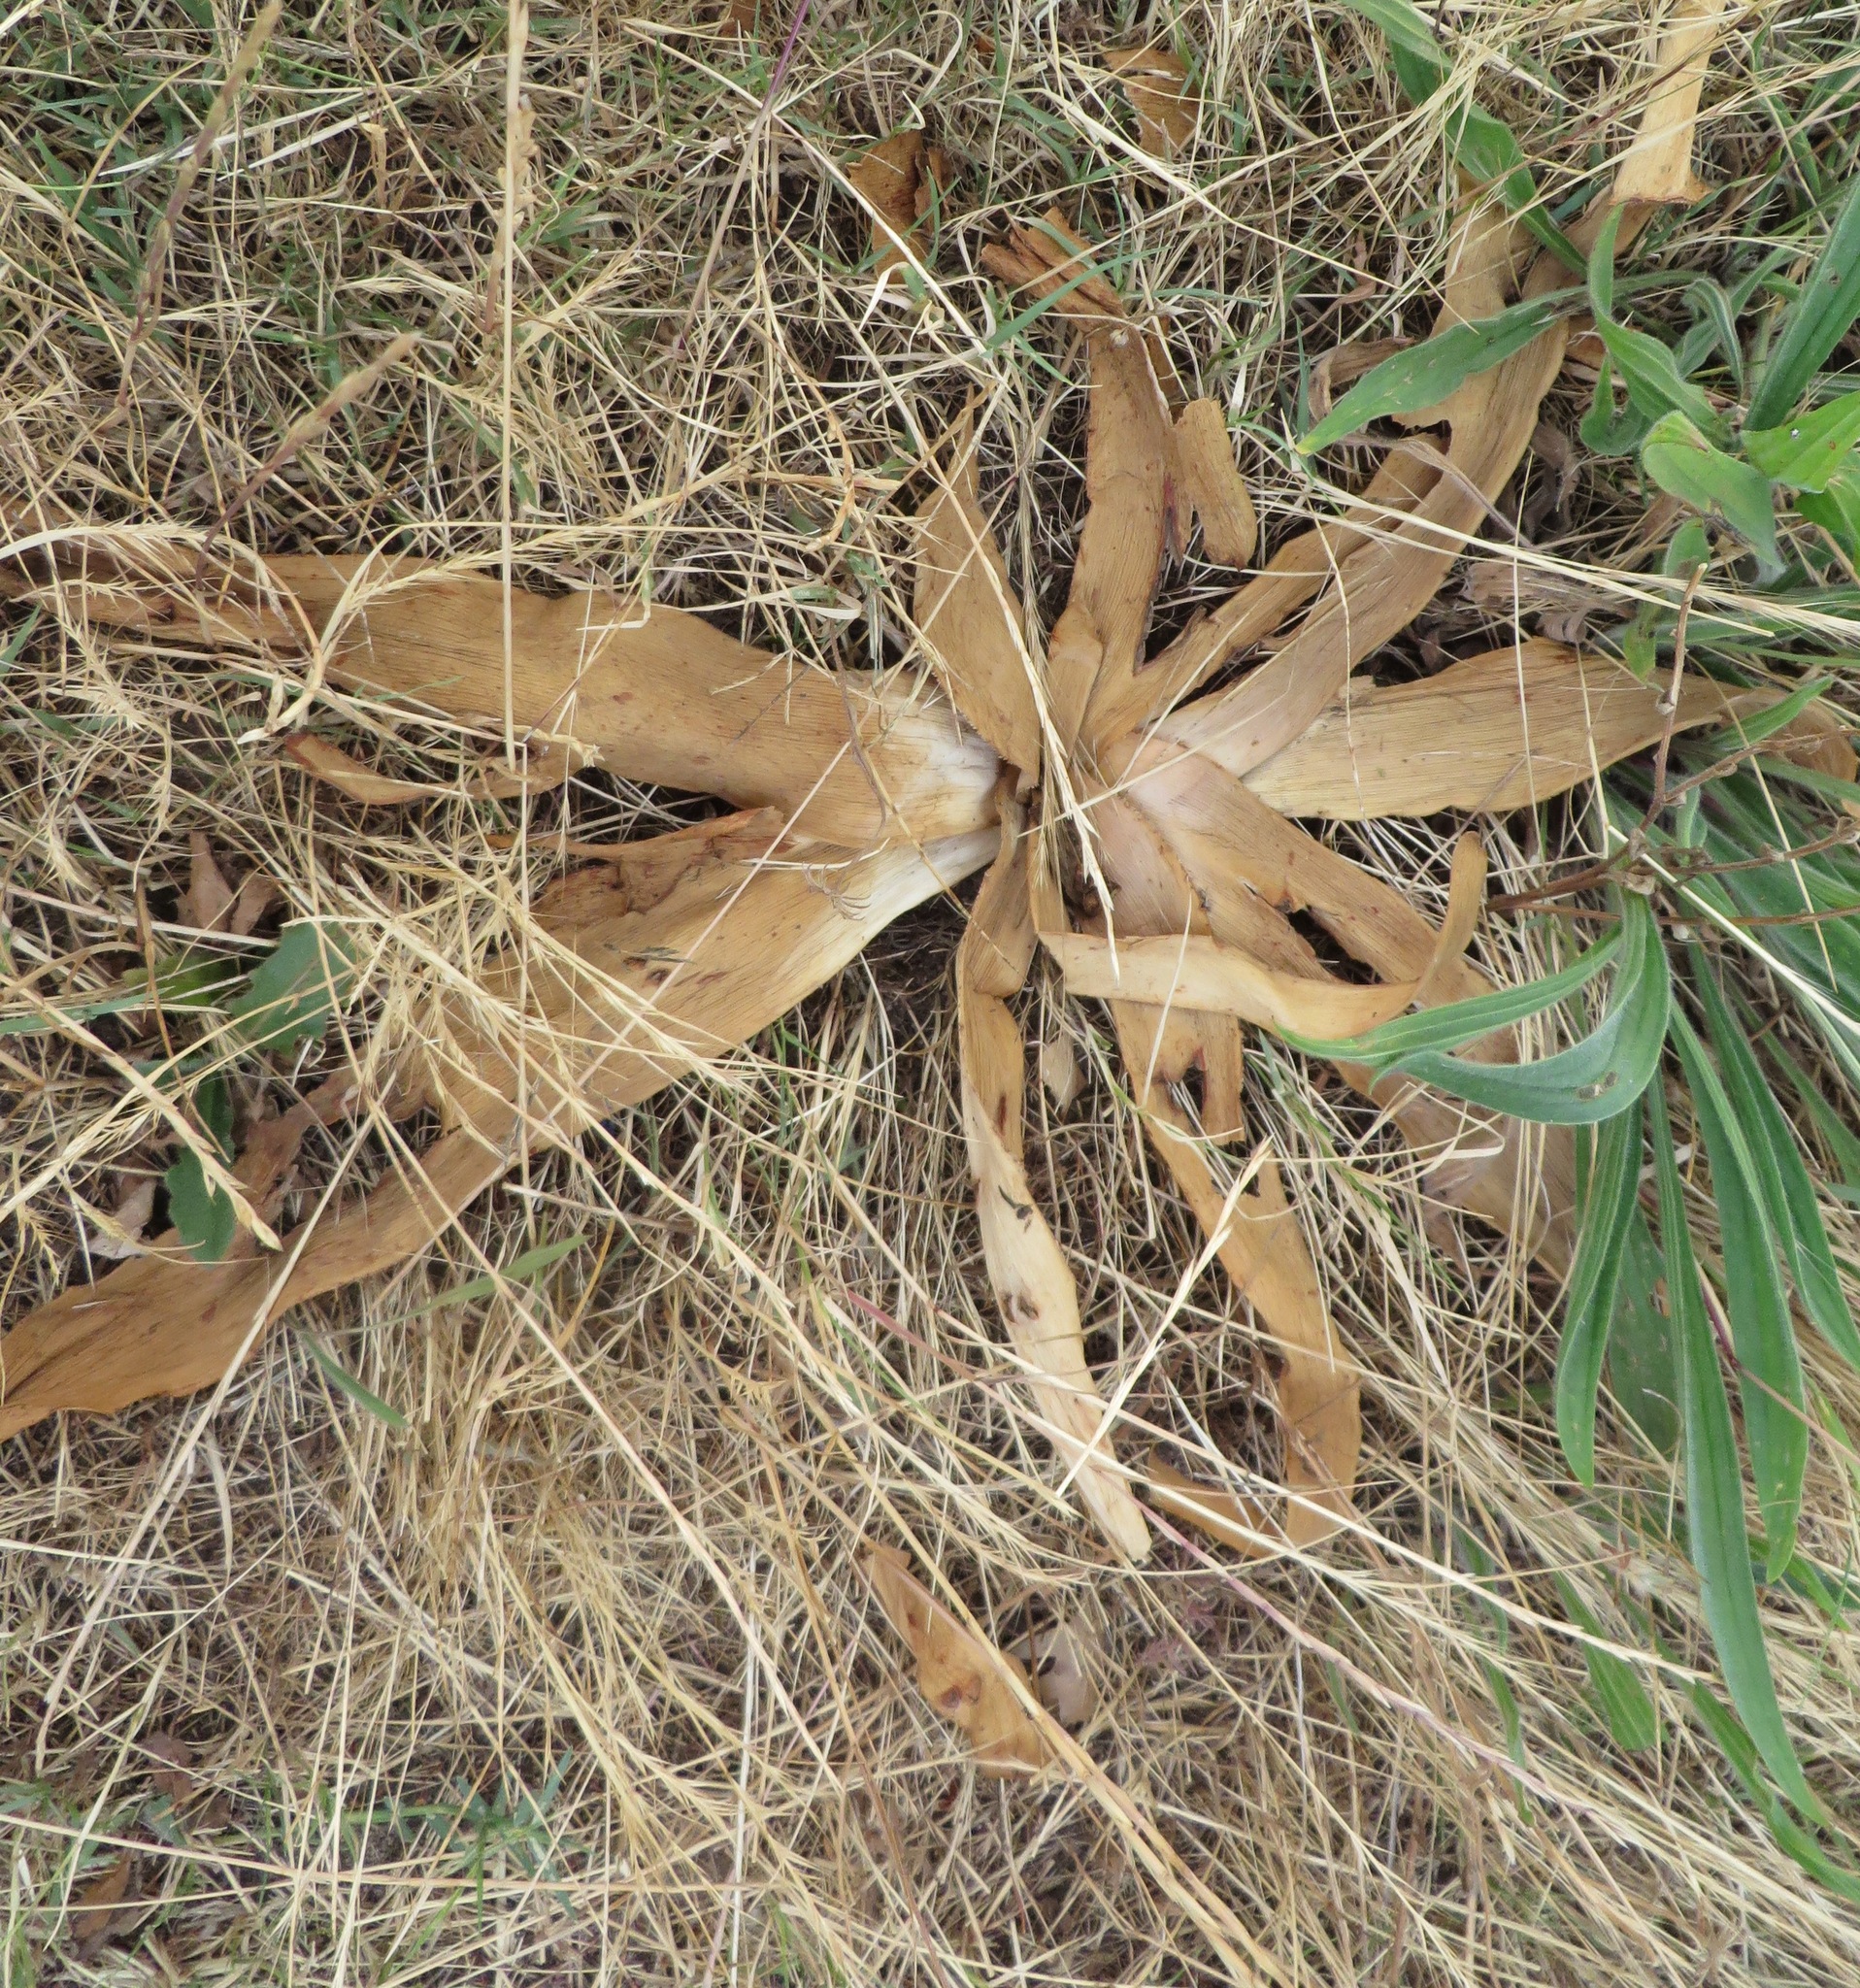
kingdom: Plantae
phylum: Tracheophyta
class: Liliopsida
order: Asparagales
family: Amaryllidaceae
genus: Ammocharis
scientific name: Ammocharis longifolia
